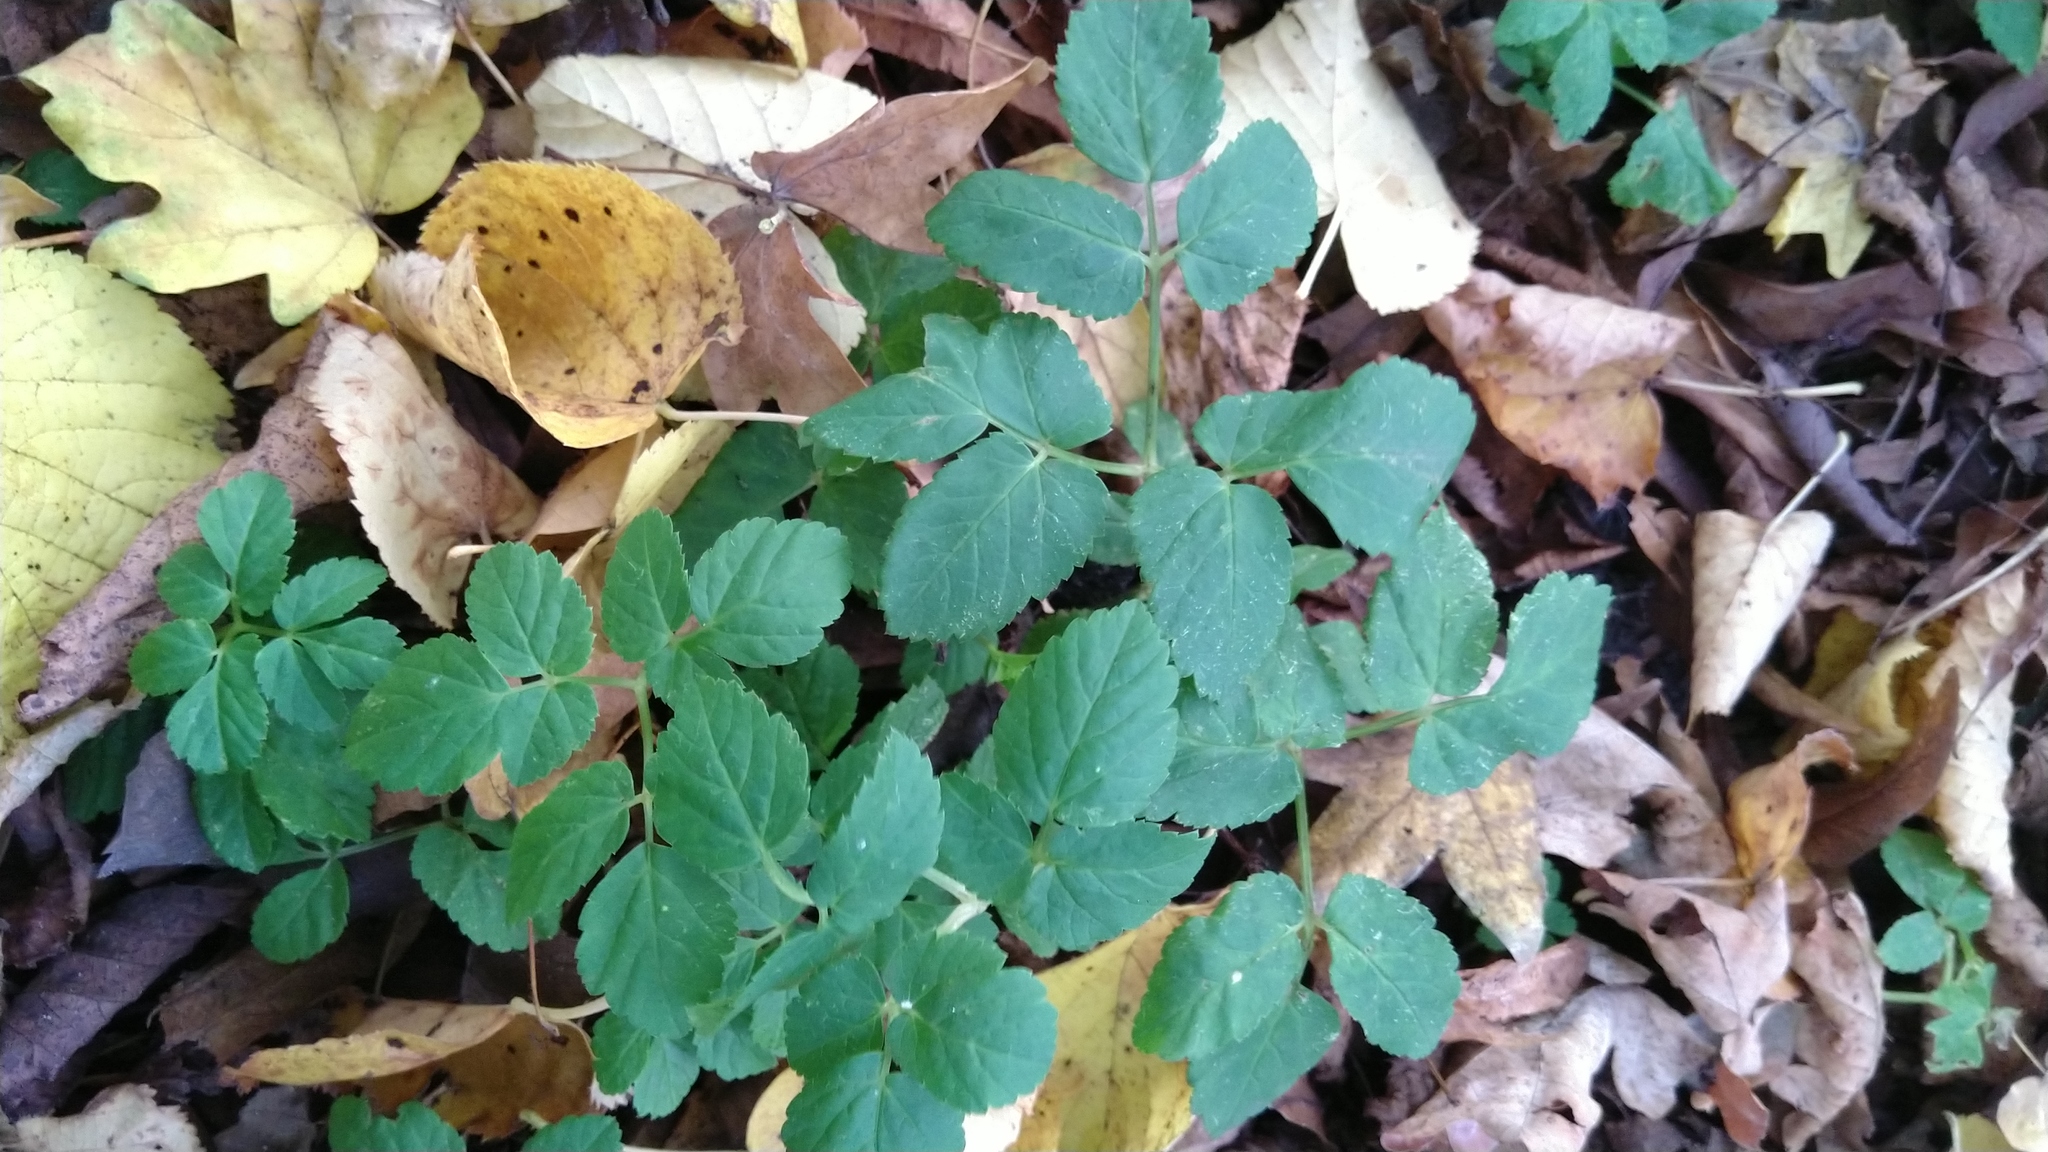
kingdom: Plantae
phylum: Tracheophyta
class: Magnoliopsida
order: Apiales
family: Apiaceae
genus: Aegopodium
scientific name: Aegopodium podagraria
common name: Ground-elder
